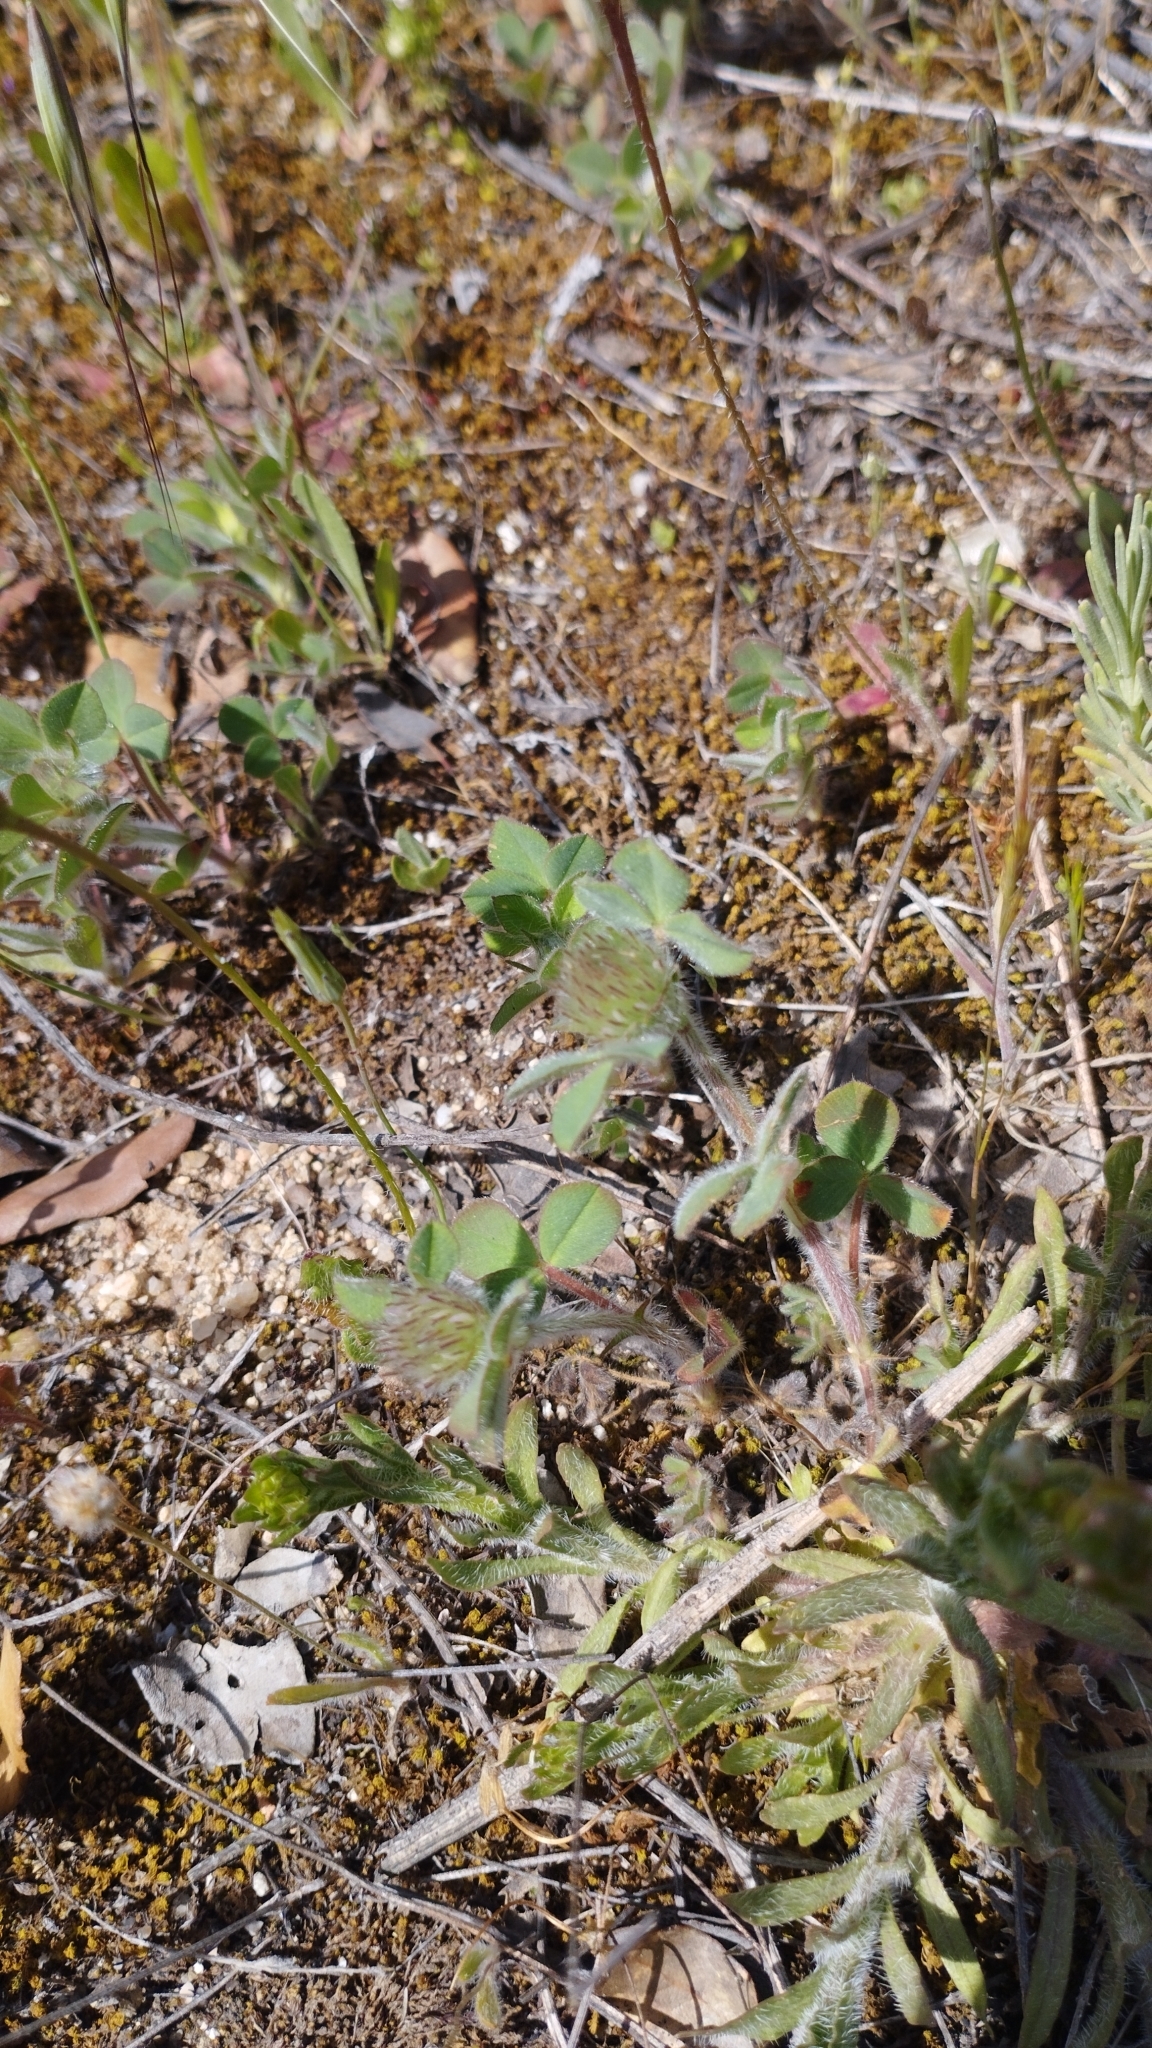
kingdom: Plantae
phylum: Tracheophyta
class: Magnoliopsida
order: Fabales
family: Fabaceae
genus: Trifolium
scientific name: Trifolium cherleri
